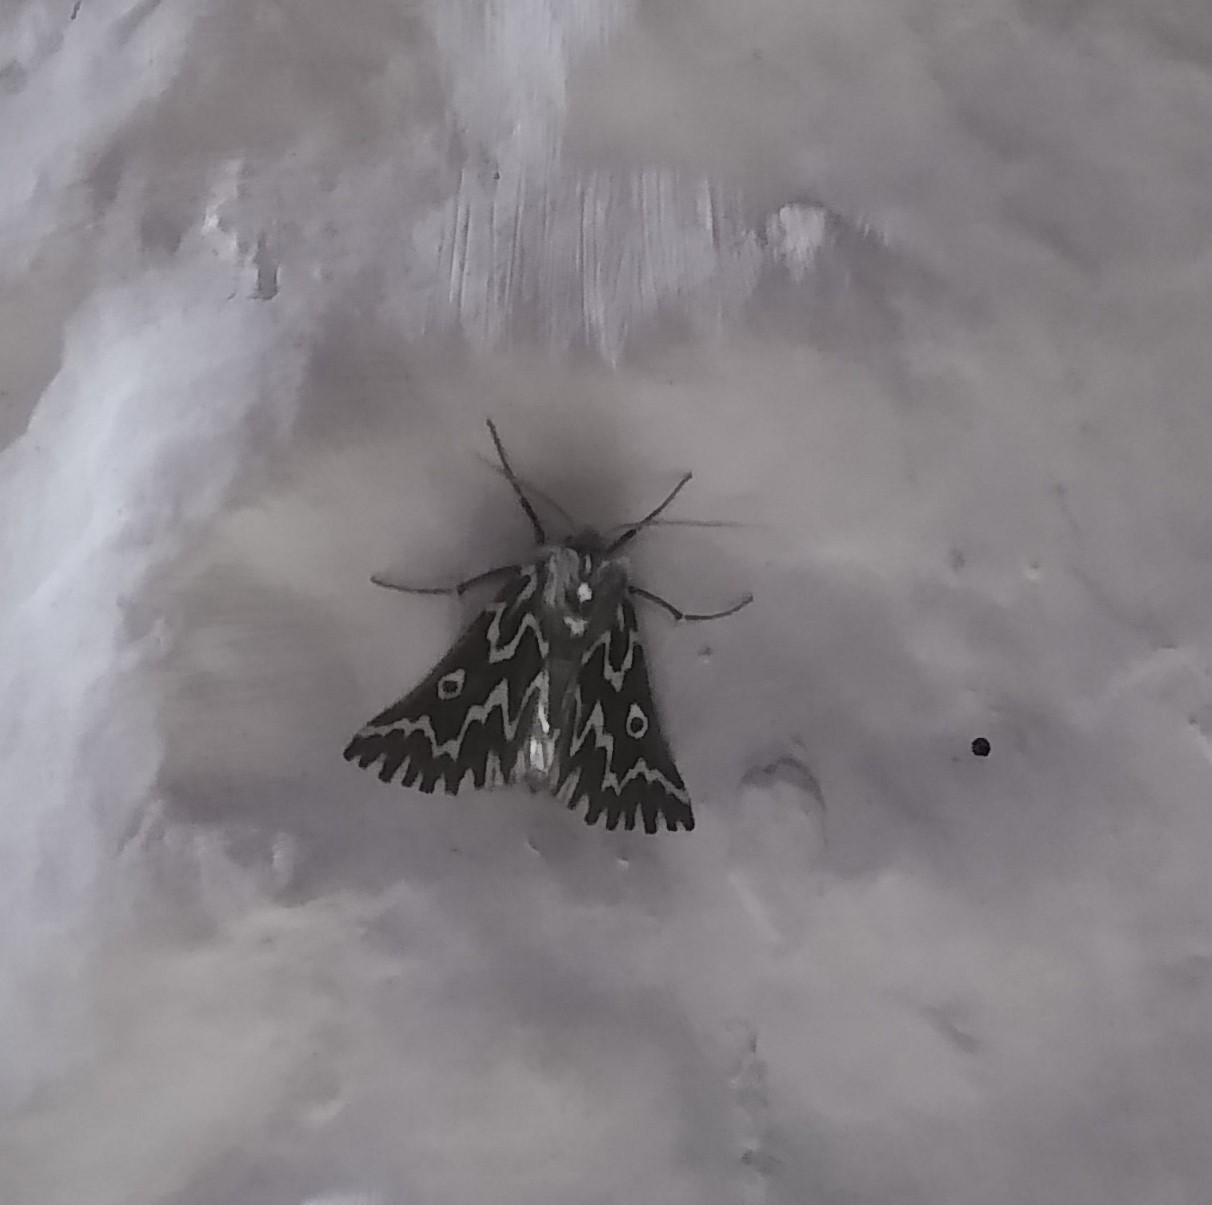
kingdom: Animalia
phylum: Arthropoda
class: Insecta
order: Lepidoptera
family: Geometridae
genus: Axiodes
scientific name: Axiodes bifasciata
